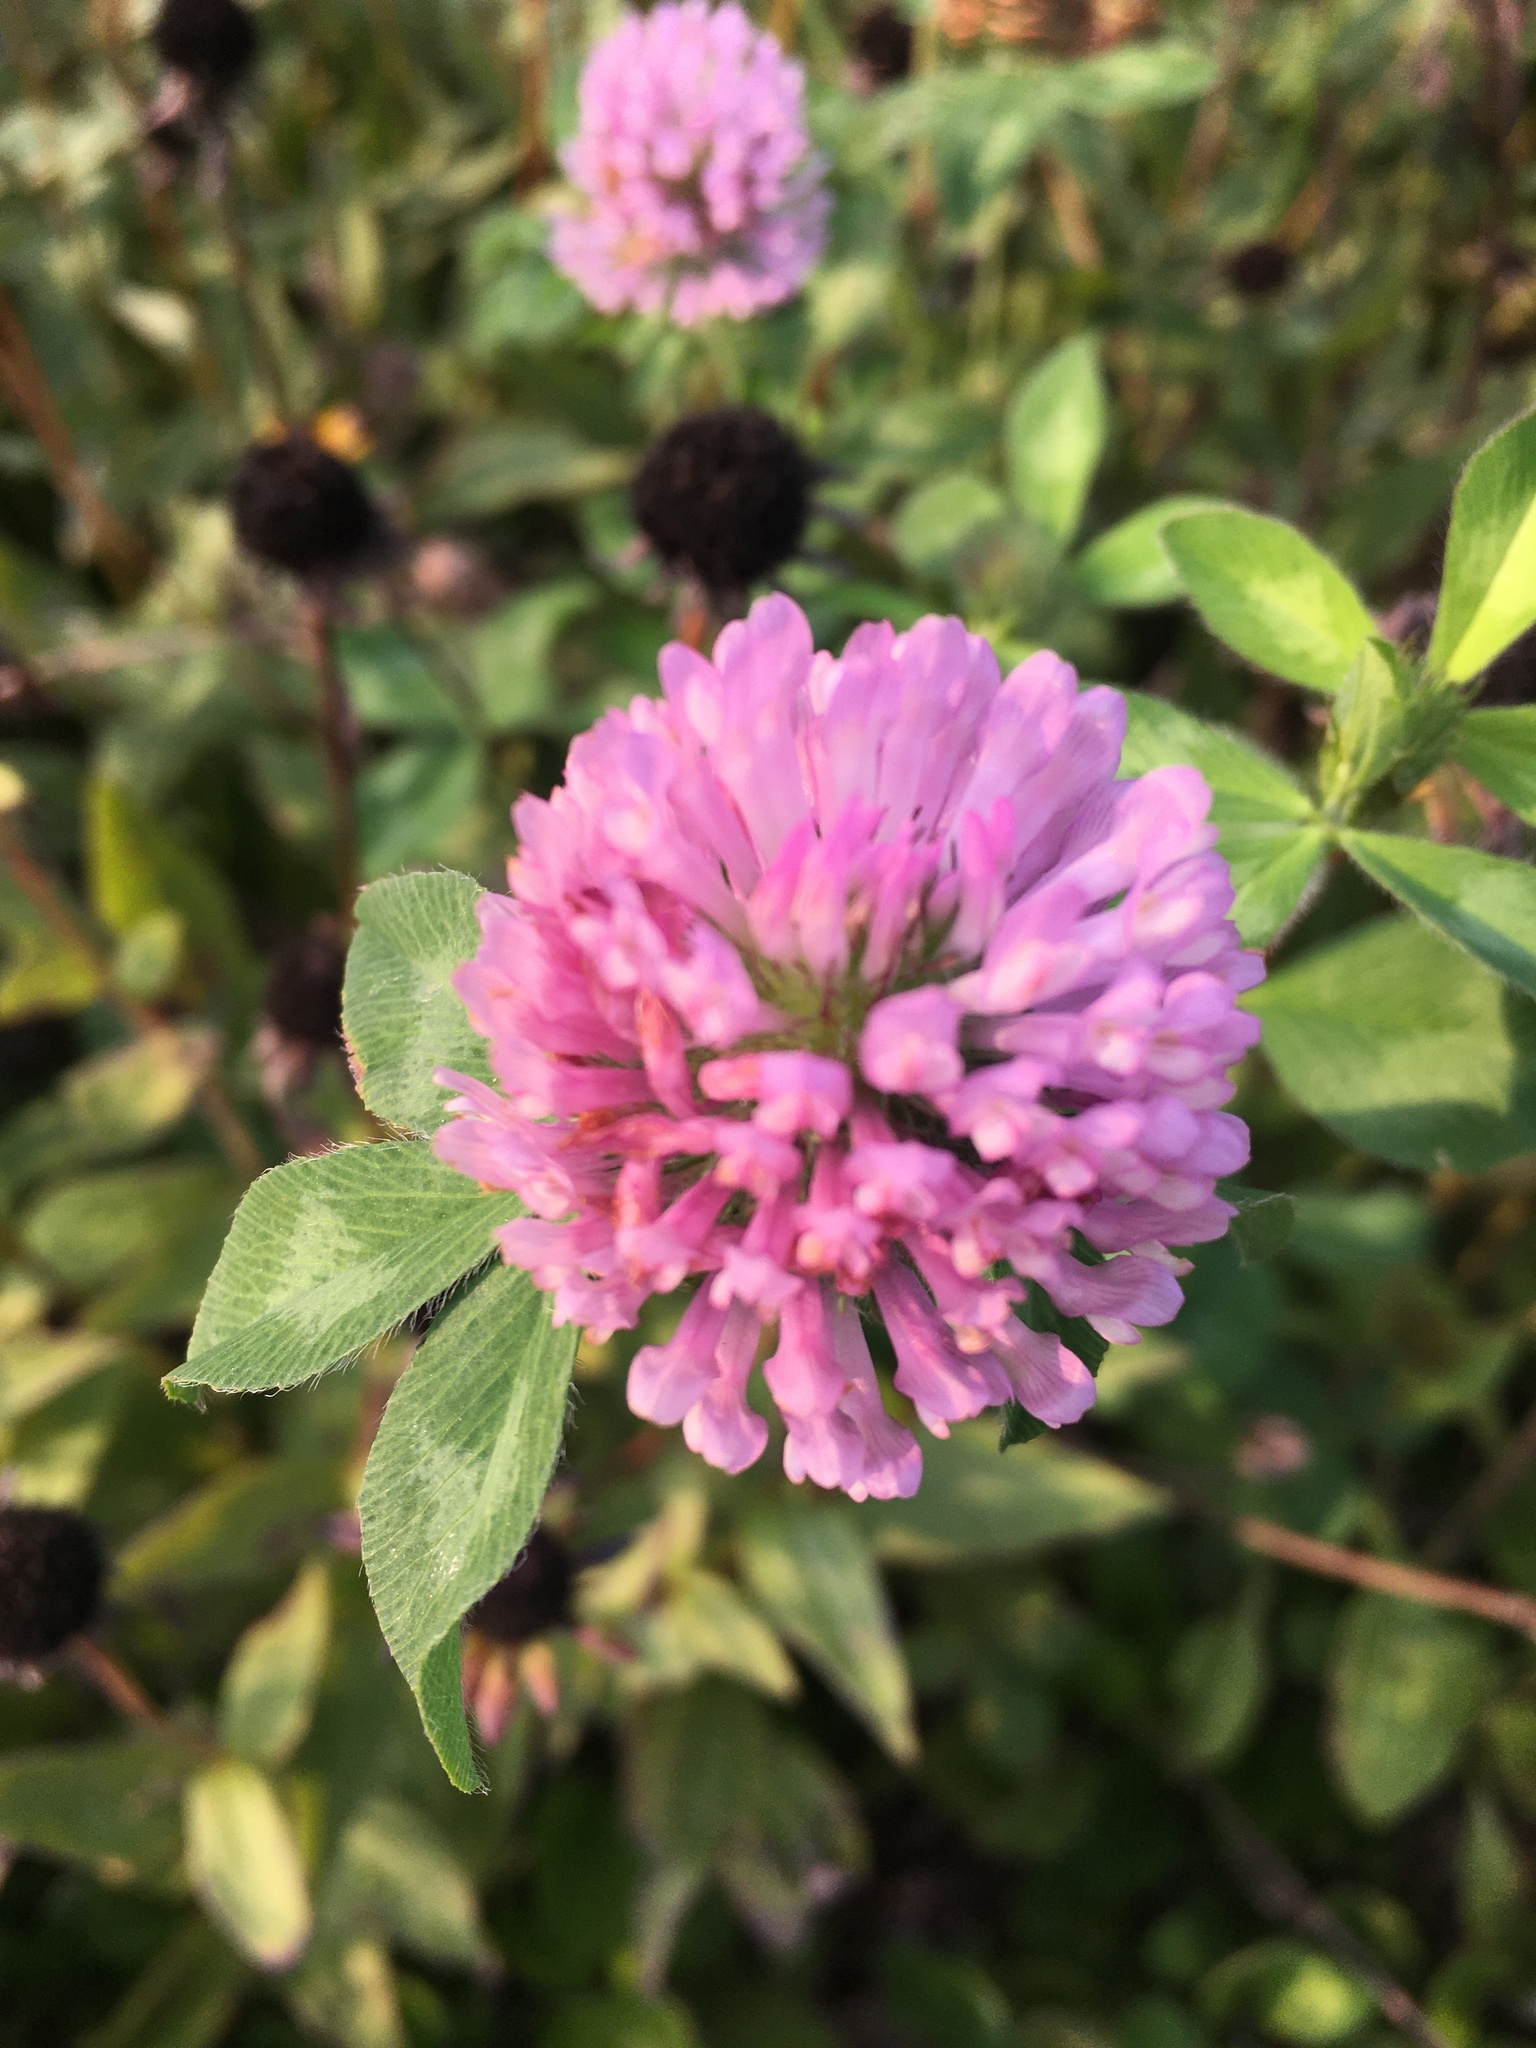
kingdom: Plantae
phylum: Tracheophyta
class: Magnoliopsida
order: Fabales
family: Fabaceae
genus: Trifolium
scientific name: Trifolium pratense
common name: Red clover
